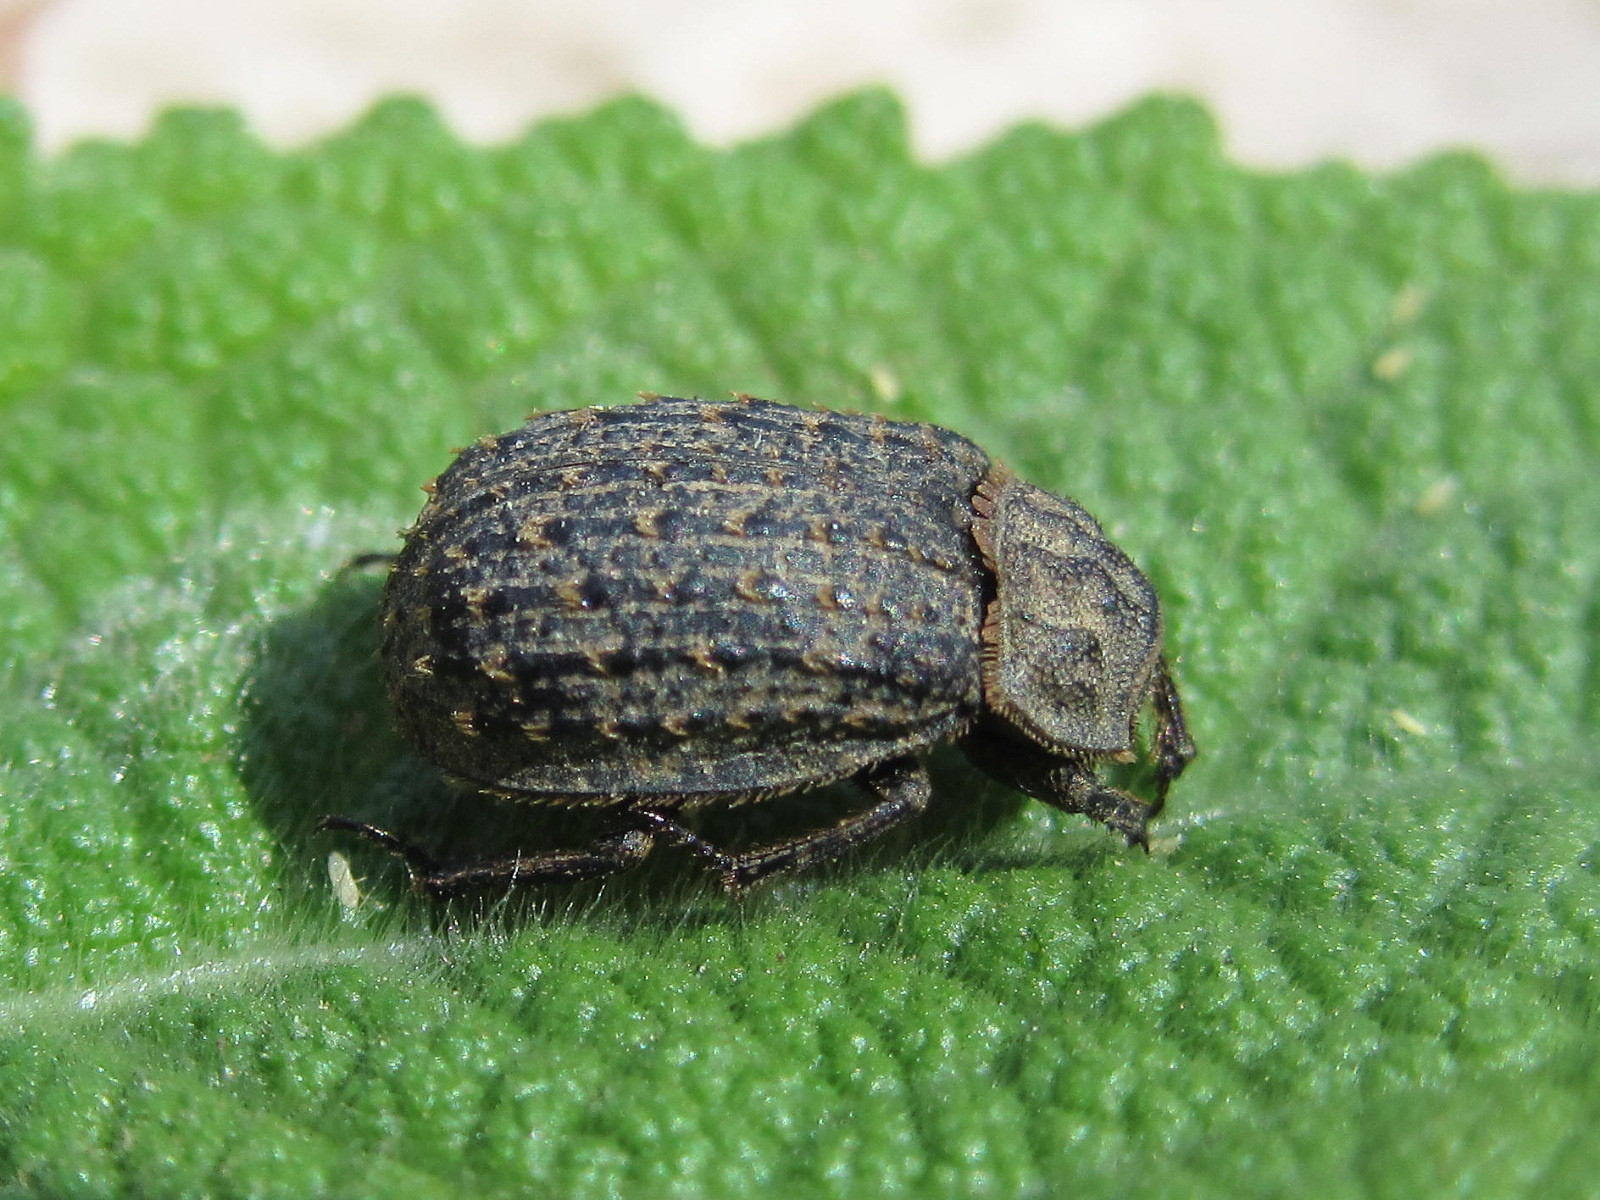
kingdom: Animalia
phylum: Arthropoda
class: Insecta
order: Coleoptera
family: Trogidae
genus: Trox
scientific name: Trox niger
